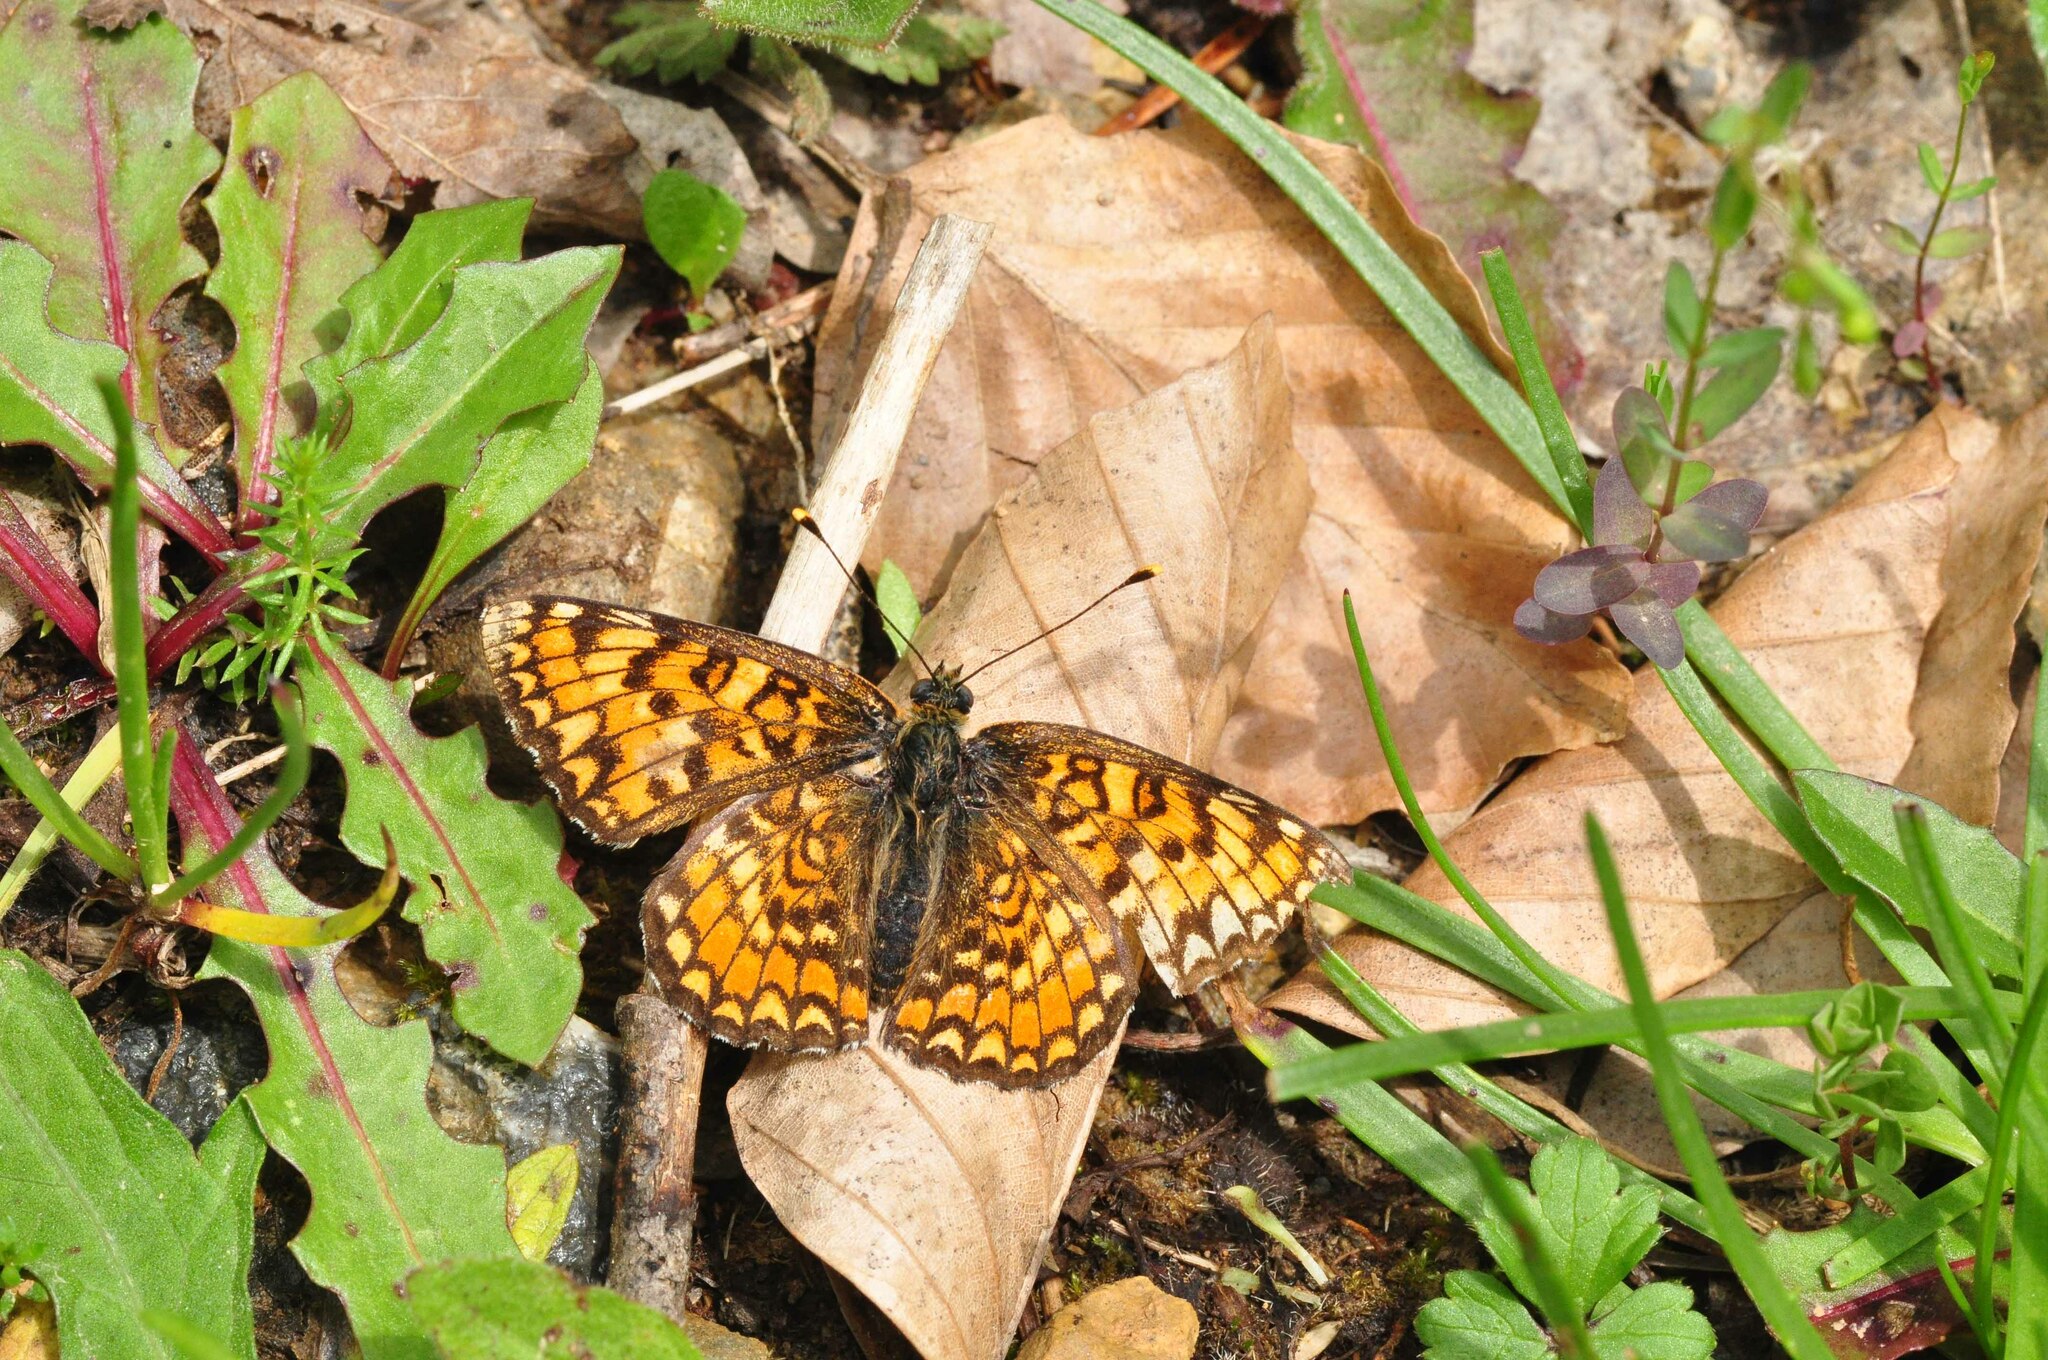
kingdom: Animalia
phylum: Arthropoda
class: Insecta
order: Lepidoptera
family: Nymphalidae
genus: Melitaea
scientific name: Melitaea phoebe
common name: Knapweed fritillary
